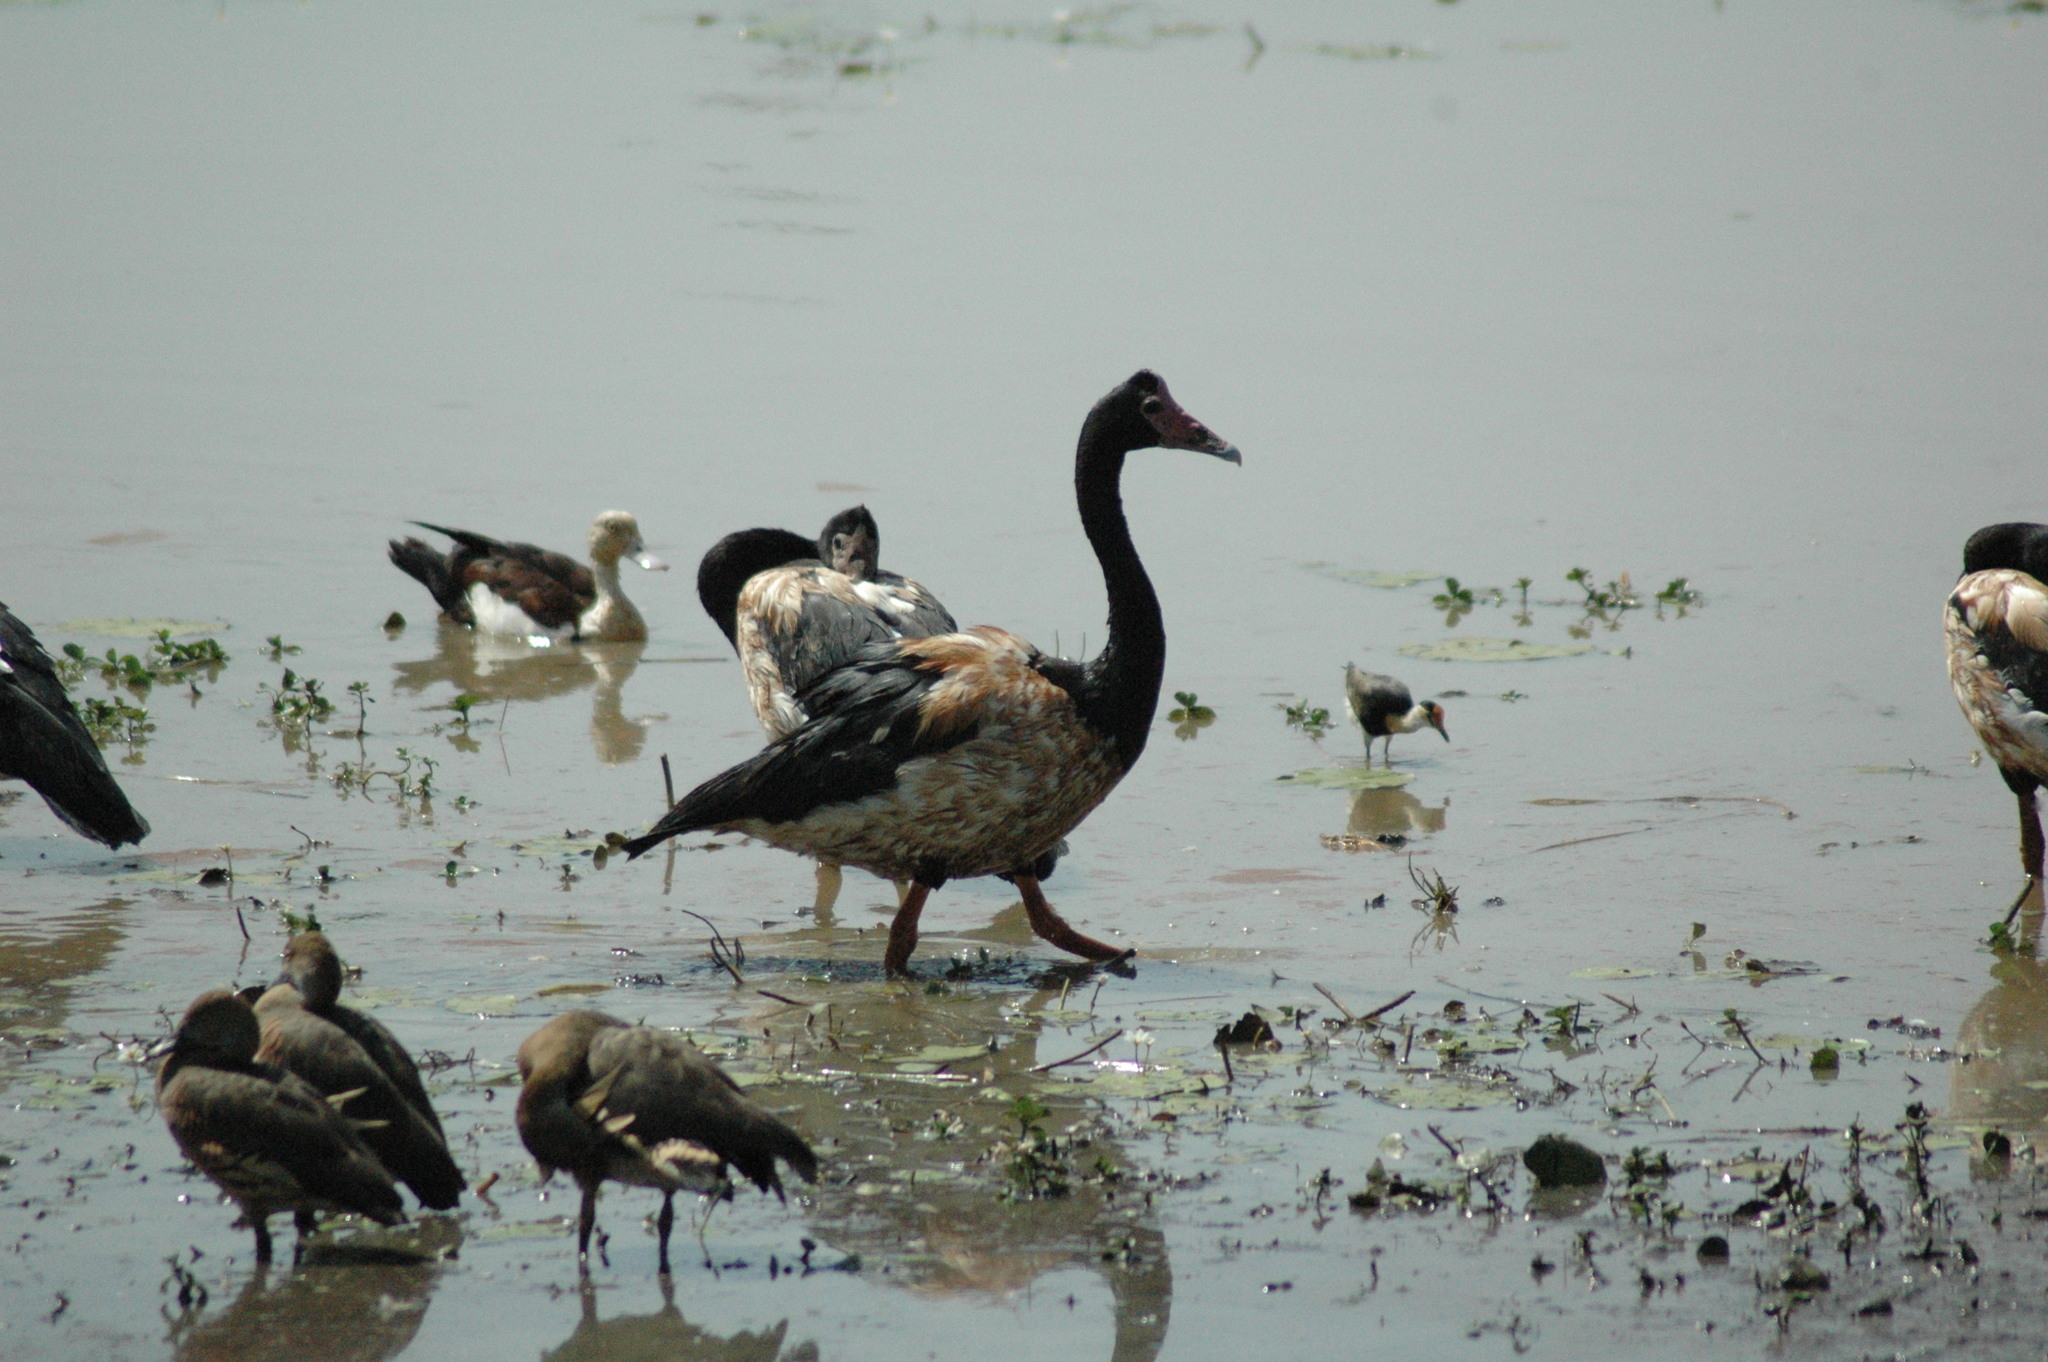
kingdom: Animalia
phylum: Chordata
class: Aves
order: Anseriformes
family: Anseranatidae
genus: Anseranas
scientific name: Anseranas semipalmata
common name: Magpie goose
